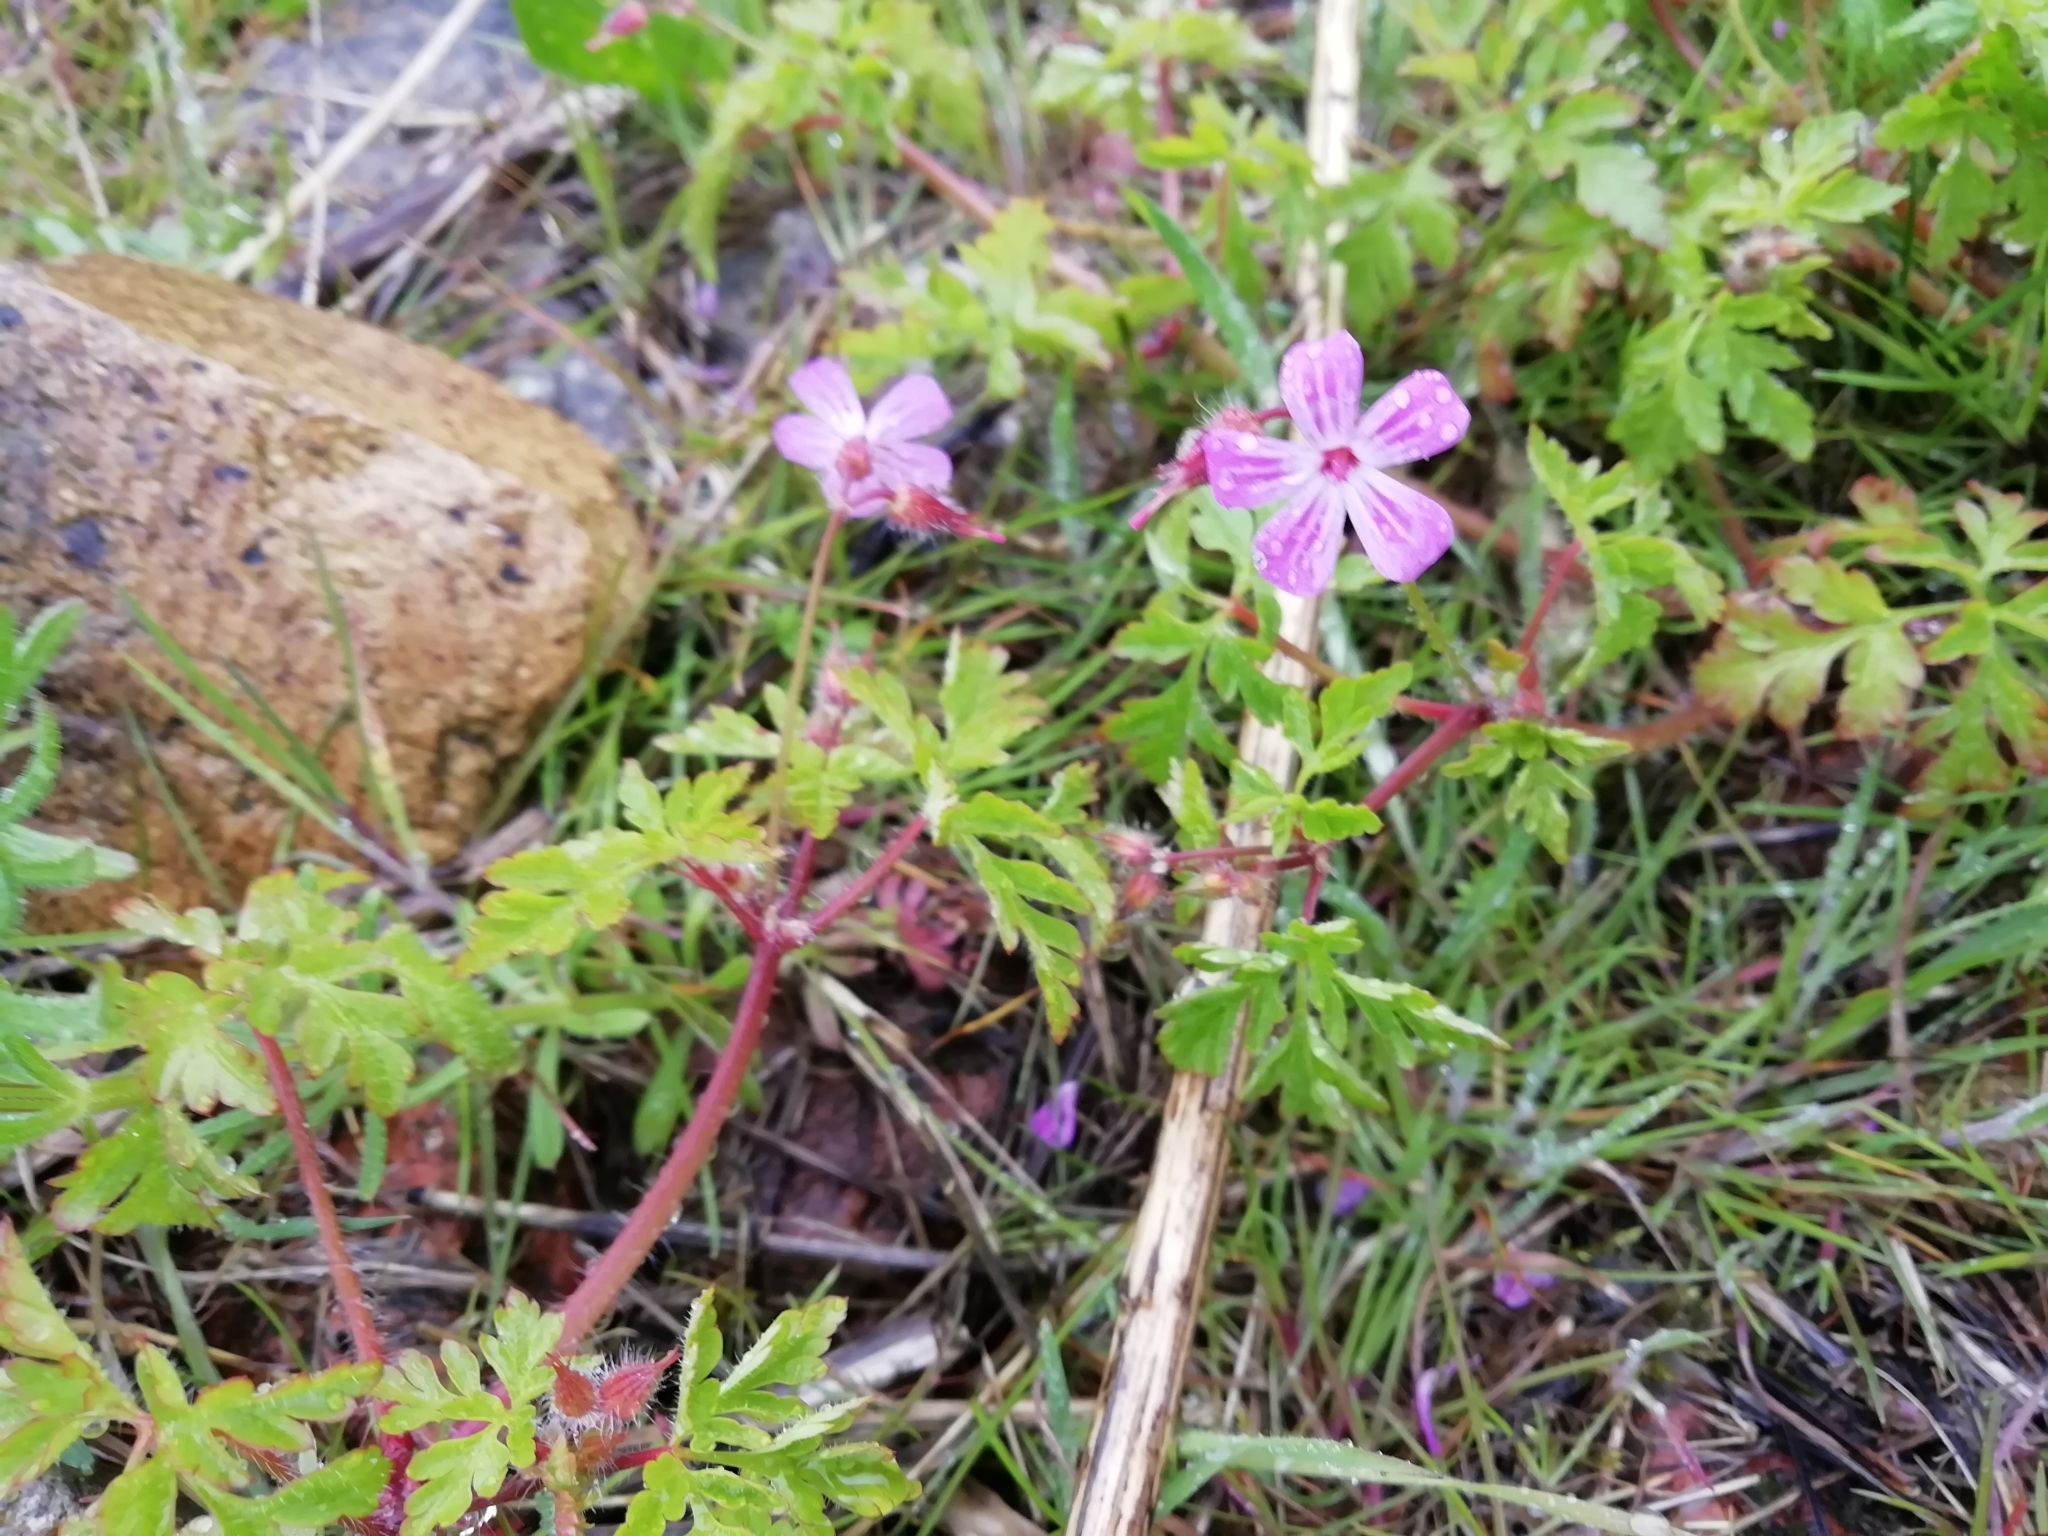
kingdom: Plantae
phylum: Tracheophyta
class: Magnoliopsida
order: Geraniales
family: Geraniaceae
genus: Geranium
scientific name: Geranium robertianum
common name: Herb-robert
